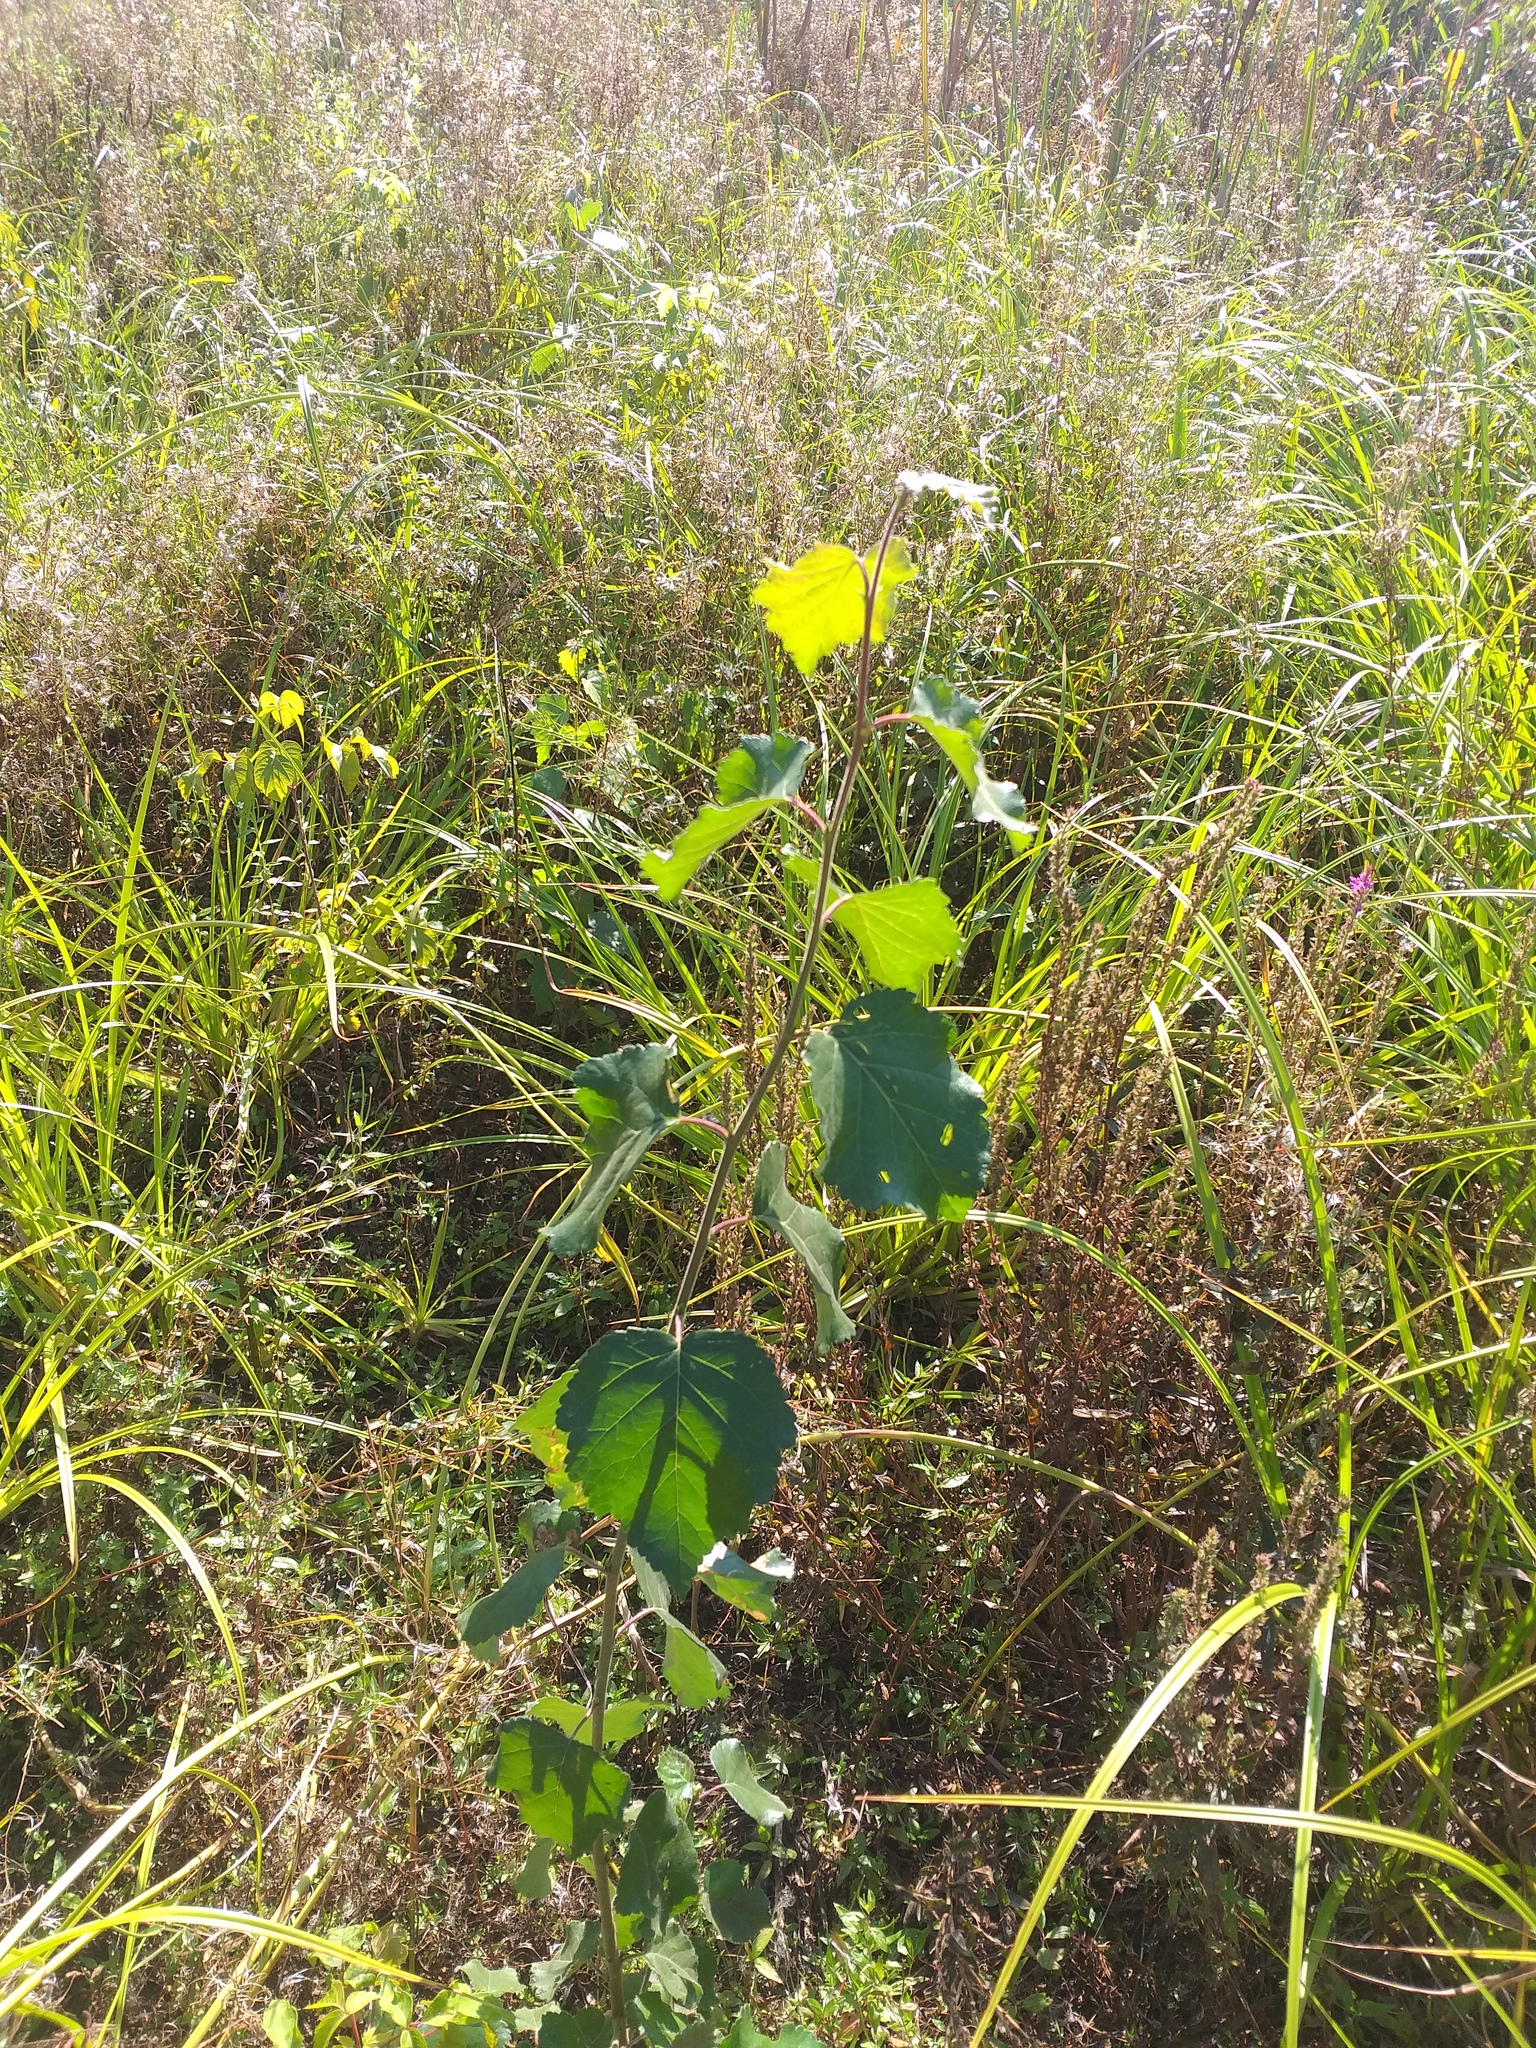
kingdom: Plantae
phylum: Tracheophyta
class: Magnoliopsida
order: Fagales
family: Betulaceae
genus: Betula
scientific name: Betula pubescens
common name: Downy birch
